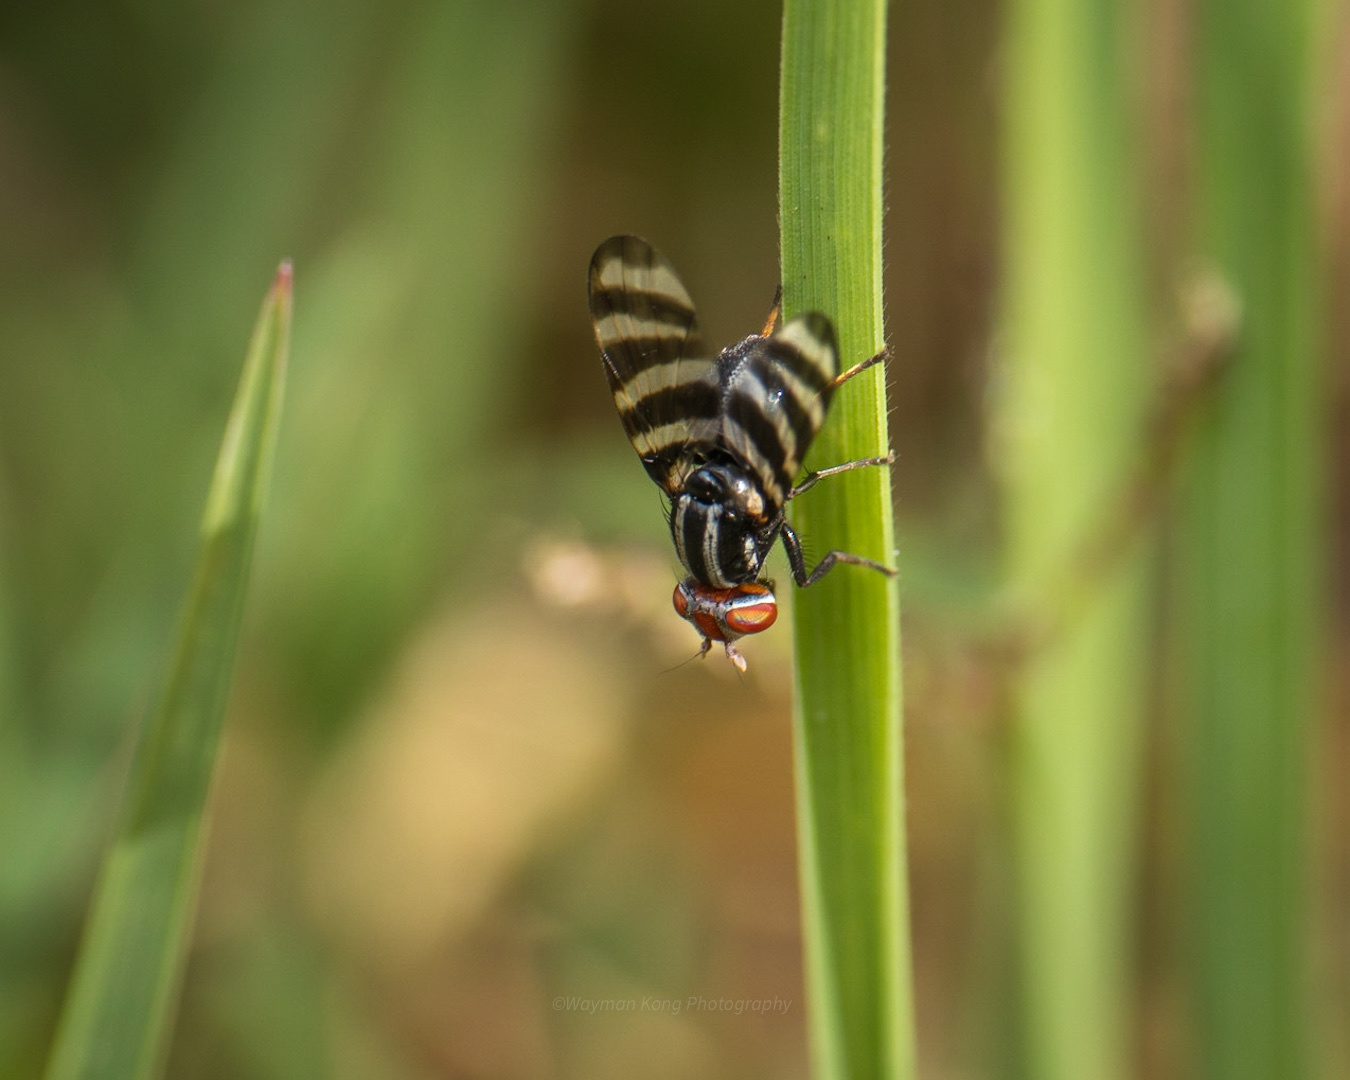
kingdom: Animalia
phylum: Arthropoda
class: Insecta
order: Diptera
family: Ulidiidae
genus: Pterotaenia
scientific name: Pterotaenia edwardsi
